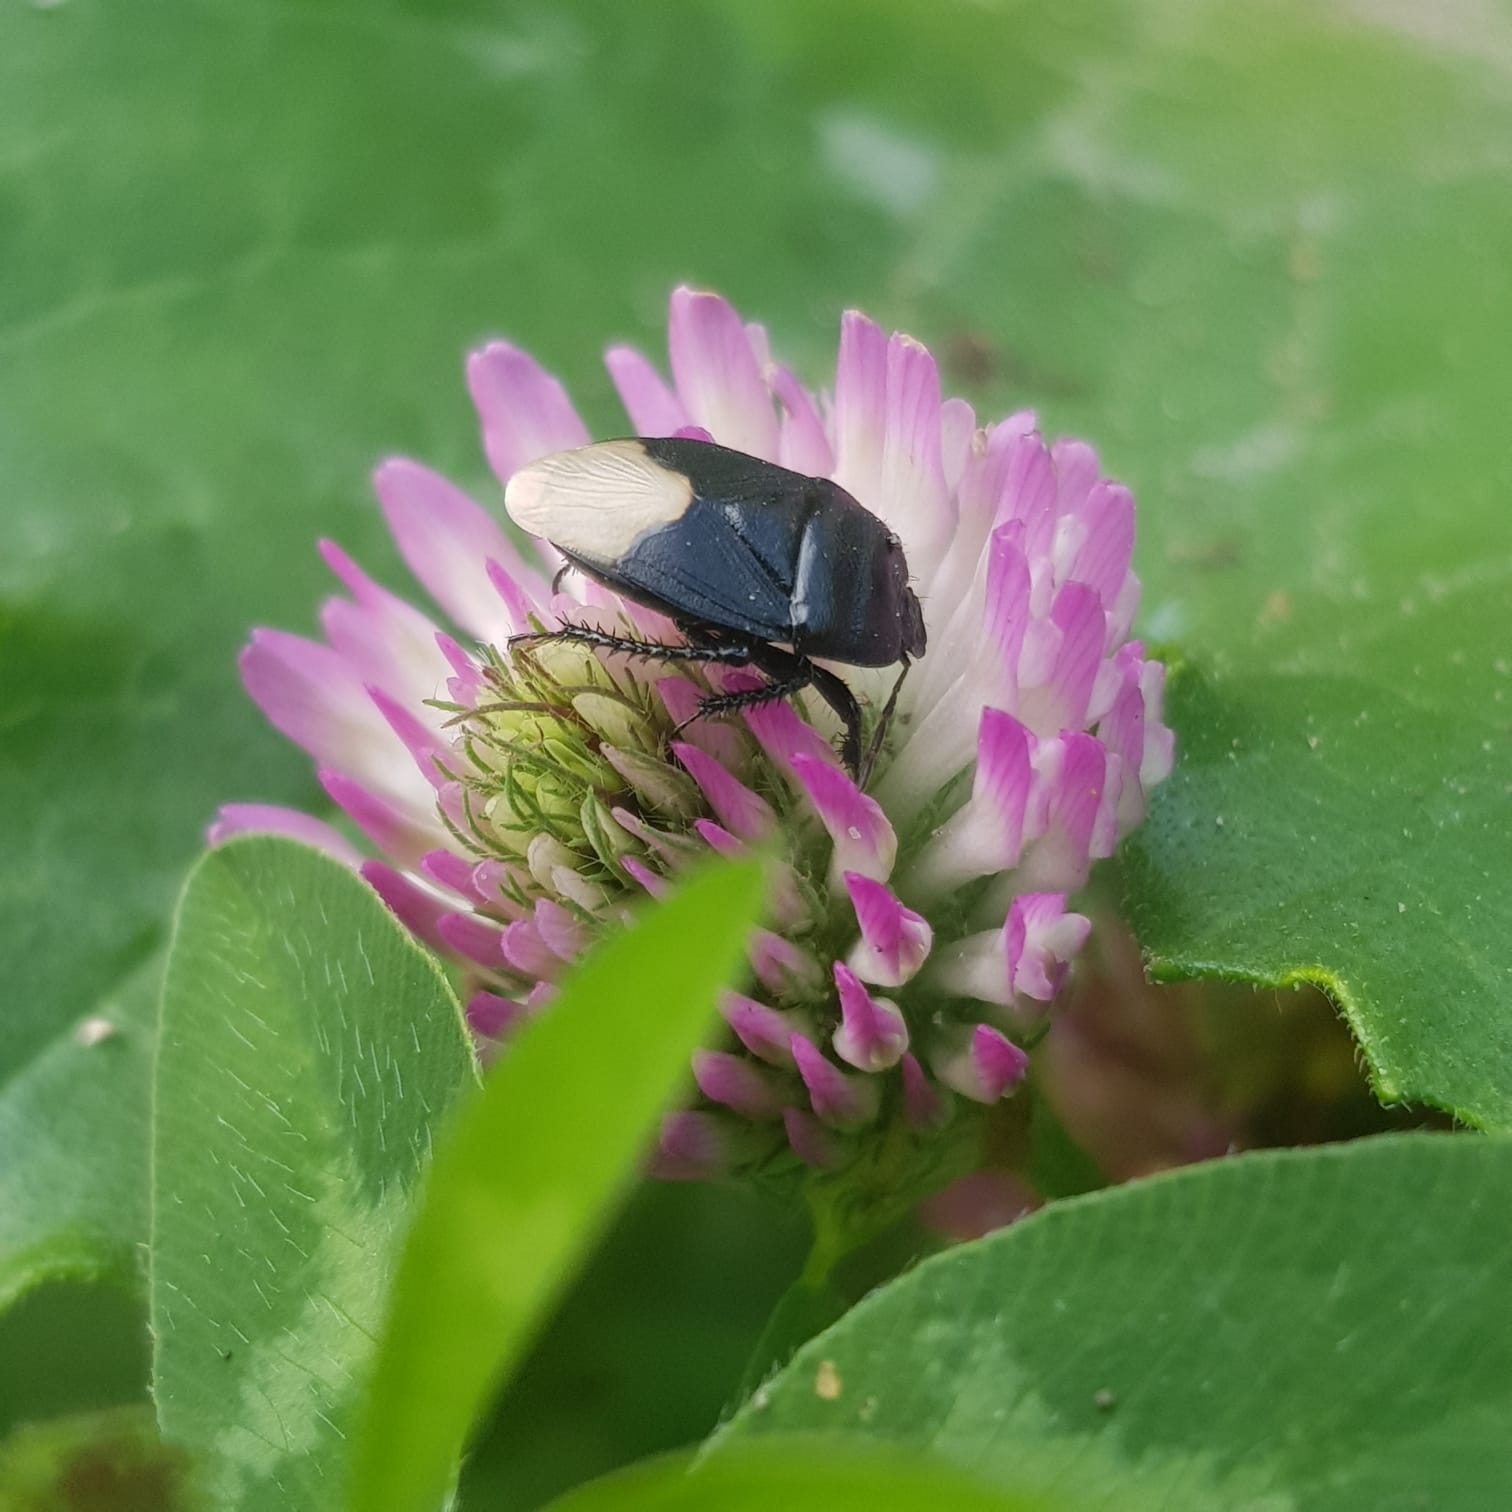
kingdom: Animalia
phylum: Arthropoda
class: Insecta
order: Hemiptera
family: Cydnidae
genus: Cydnus
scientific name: Cydnus aterrimus
